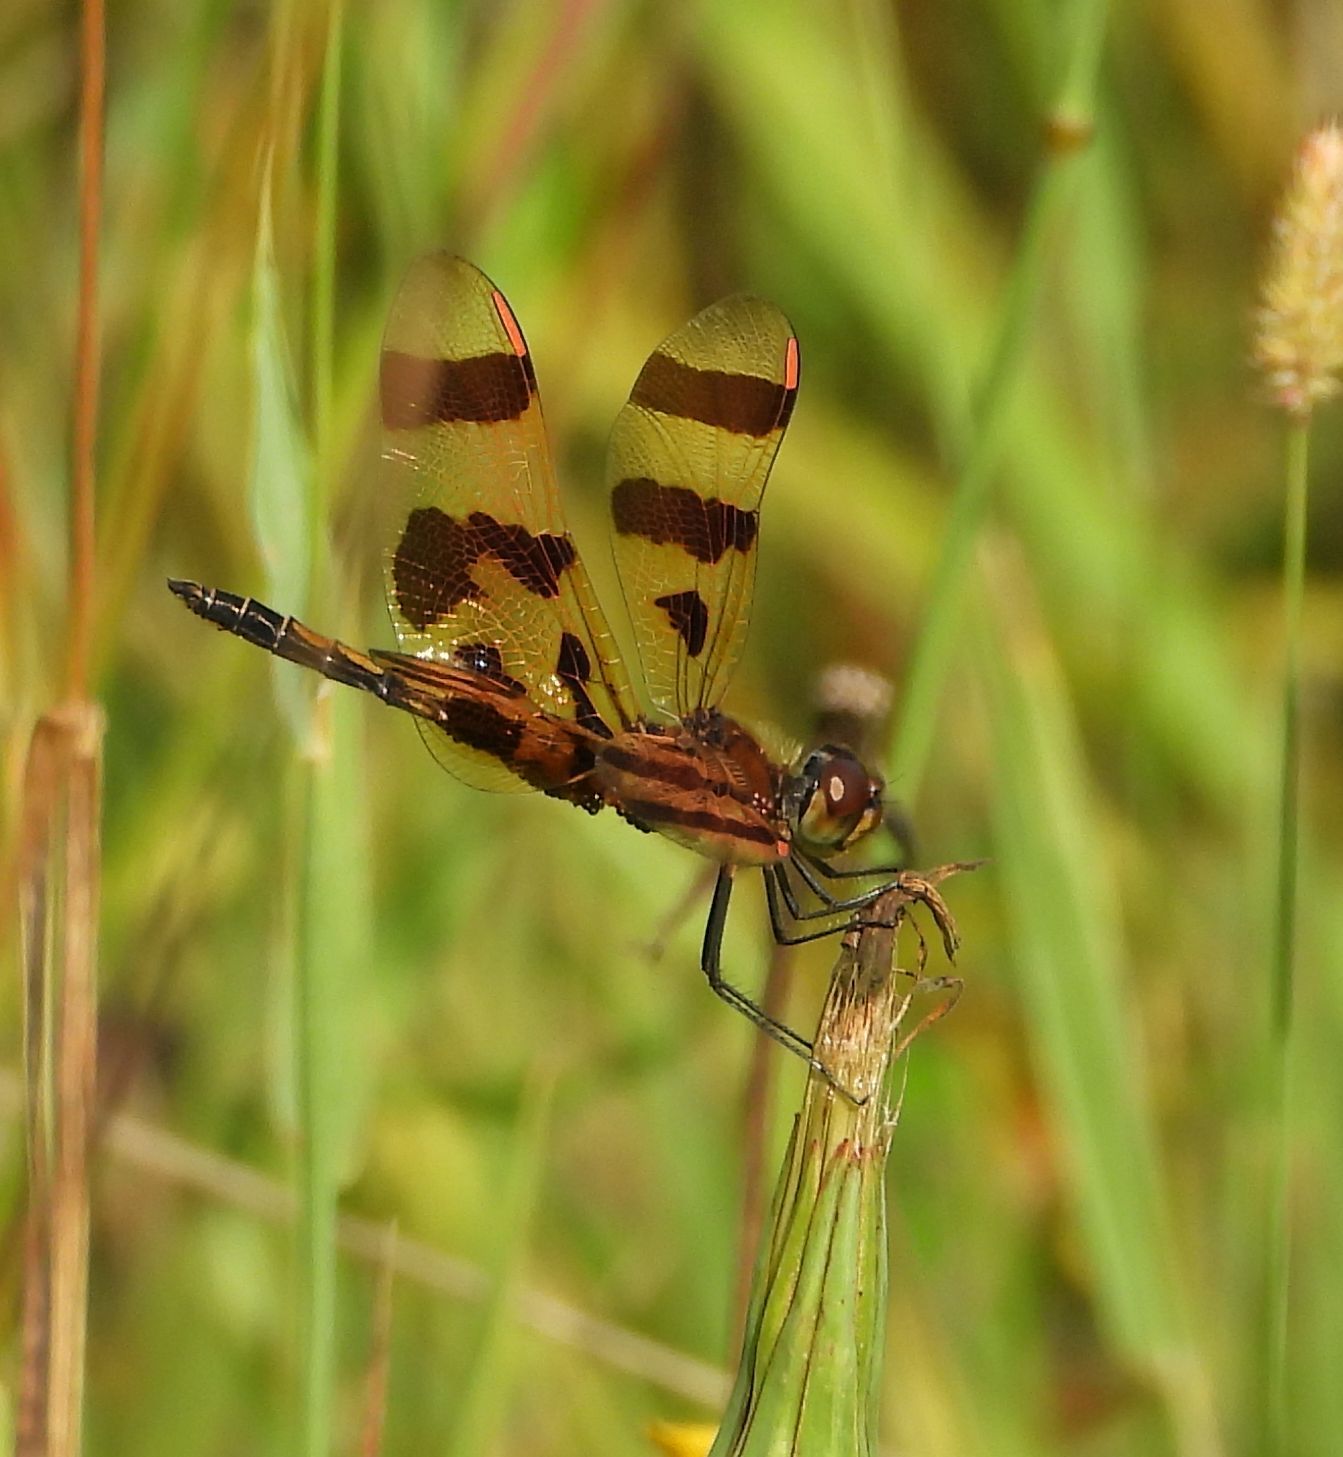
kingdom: Animalia
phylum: Arthropoda
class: Insecta
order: Odonata
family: Libellulidae
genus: Celithemis
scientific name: Celithemis eponina
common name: Halloween pennant
